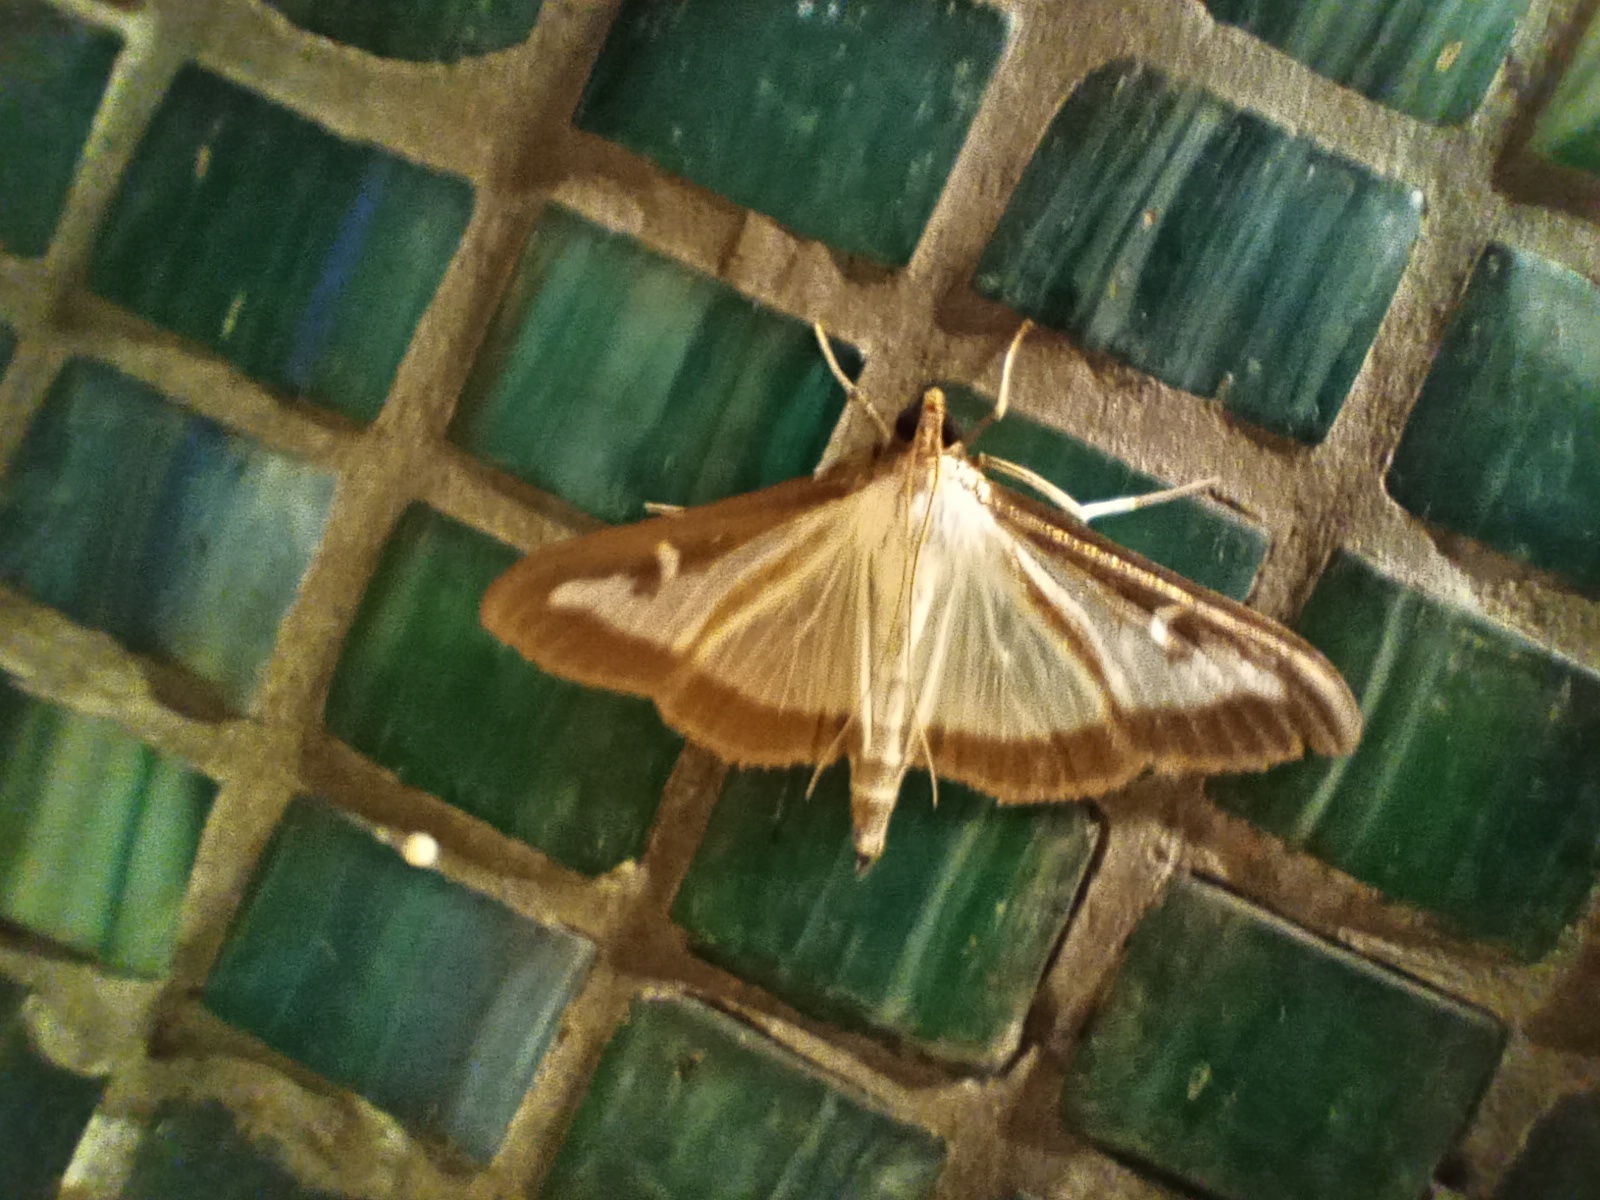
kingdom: Animalia
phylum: Arthropoda
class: Insecta
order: Lepidoptera
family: Crambidae
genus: Cydalima
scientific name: Cydalima perspectalis
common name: Box tree moth
